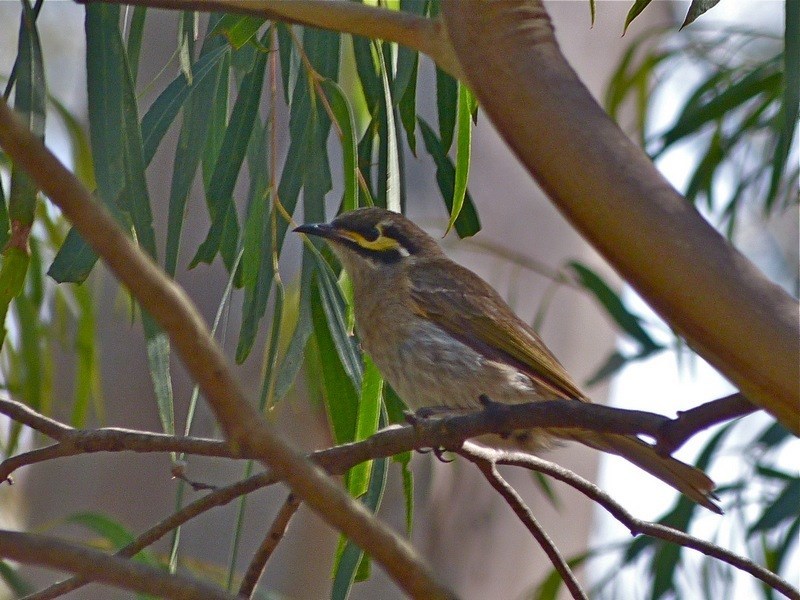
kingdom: Animalia
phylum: Chordata
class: Aves
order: Passeriformes
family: Meliphagidae
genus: Caligavis
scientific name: Caligavis chrysops
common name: Yellow-faced honeyeater
